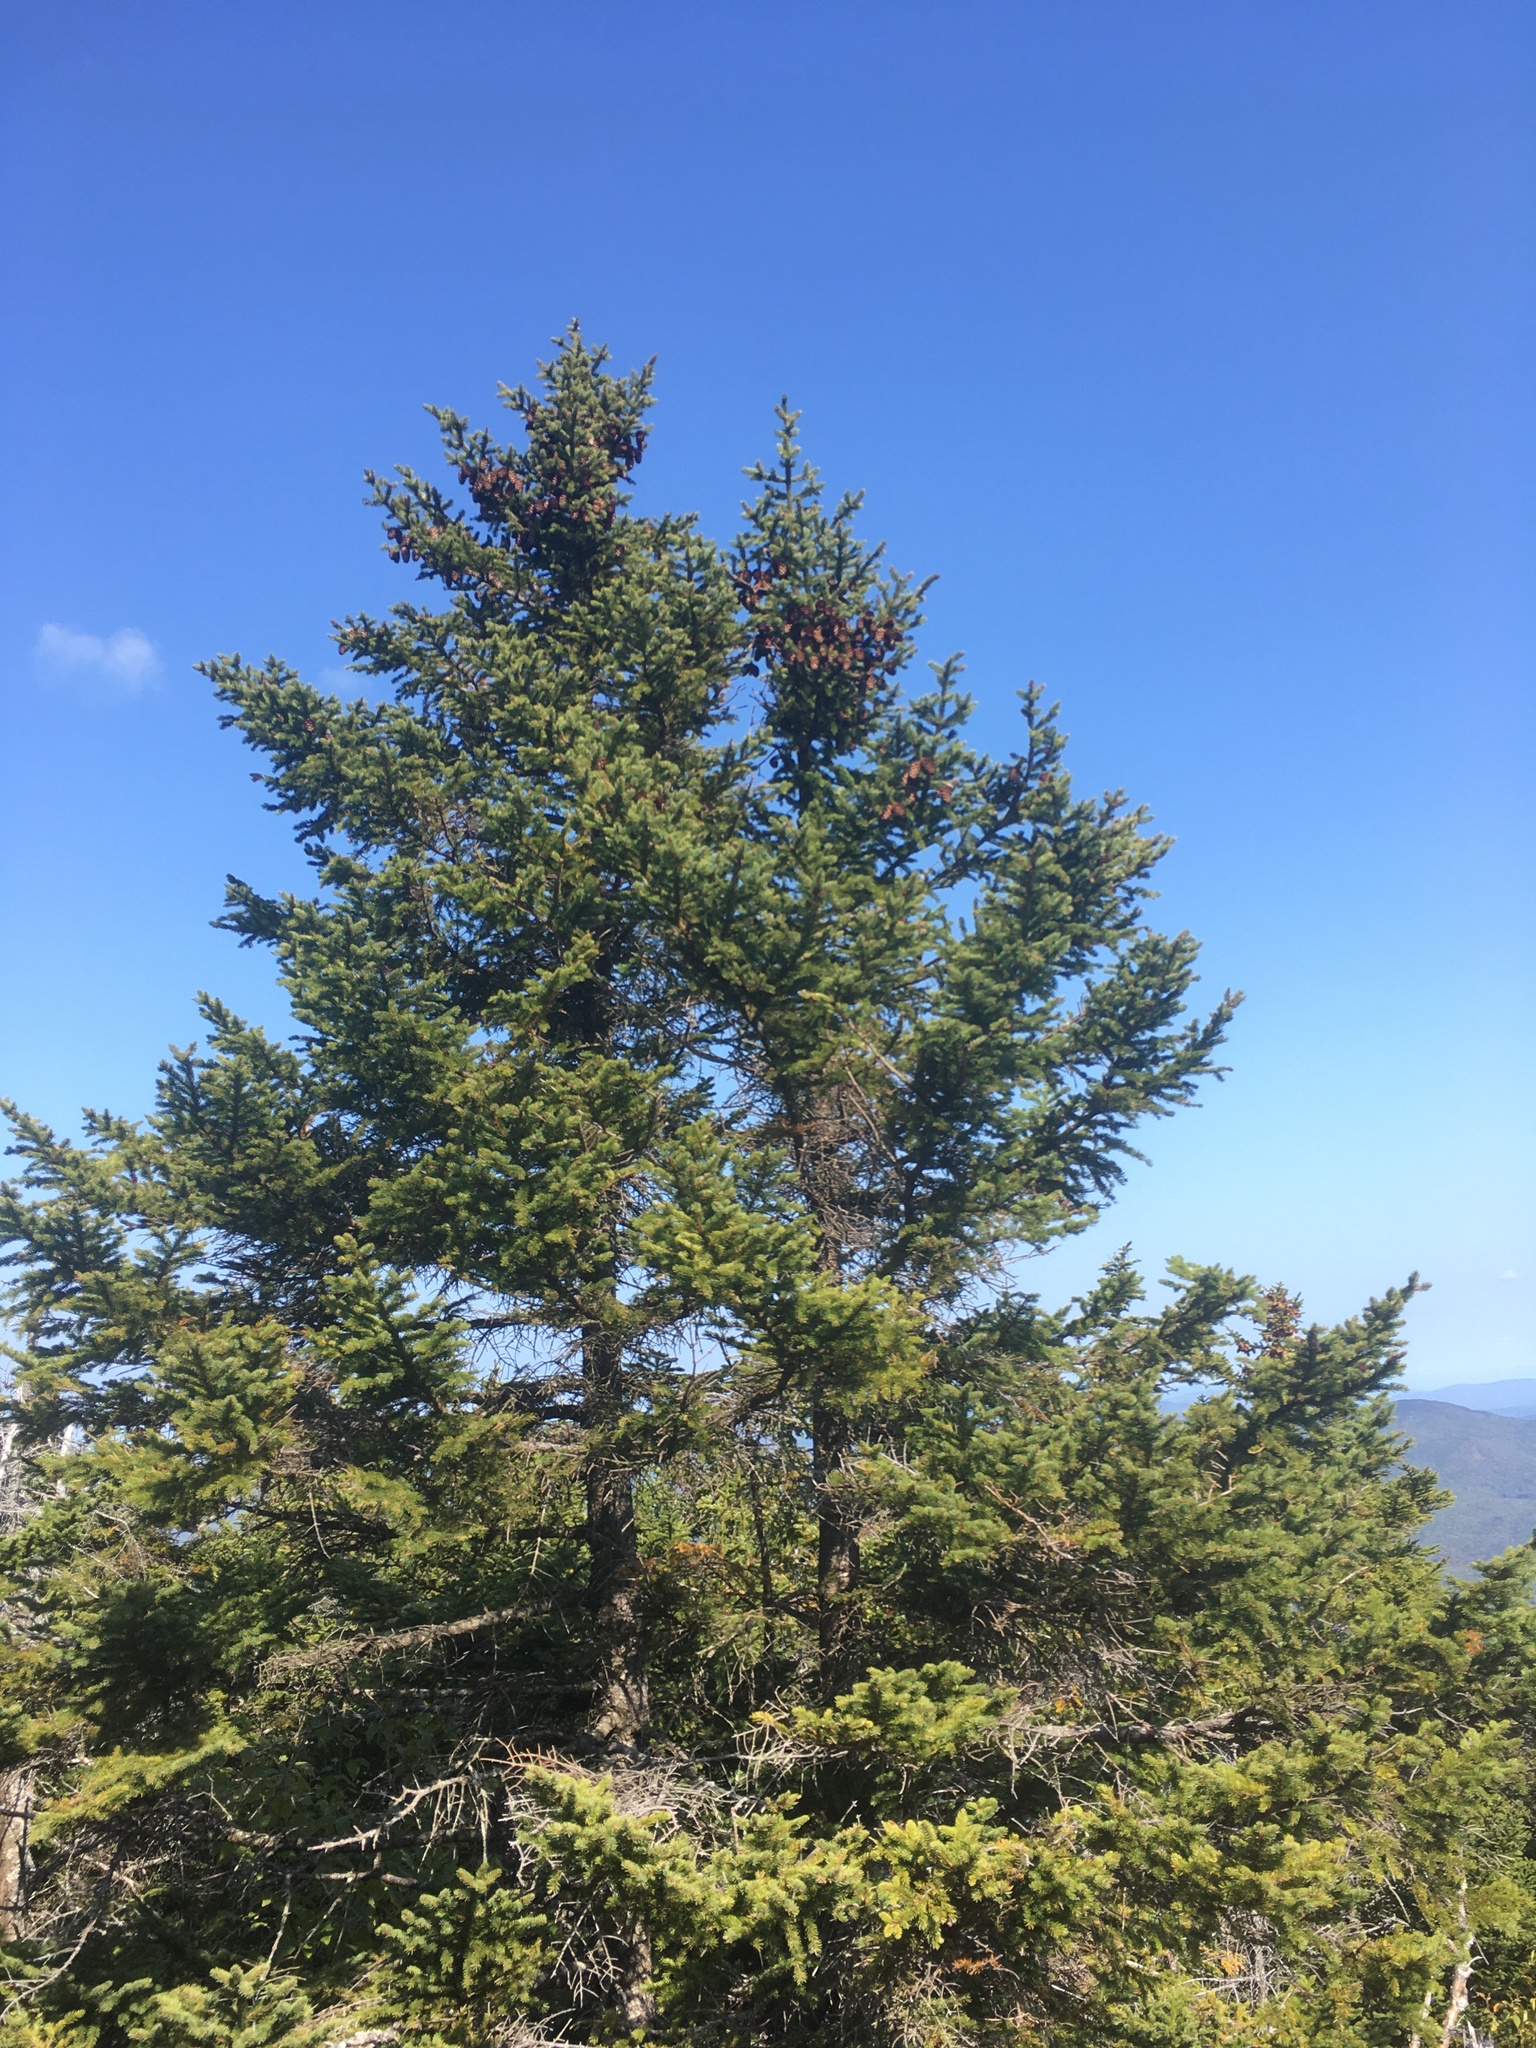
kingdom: Plantae
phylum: Tracheophyta
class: Pinopsida
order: Pinales
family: Pinaceae
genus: Picea
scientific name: Picea rubens
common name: Red spruce
